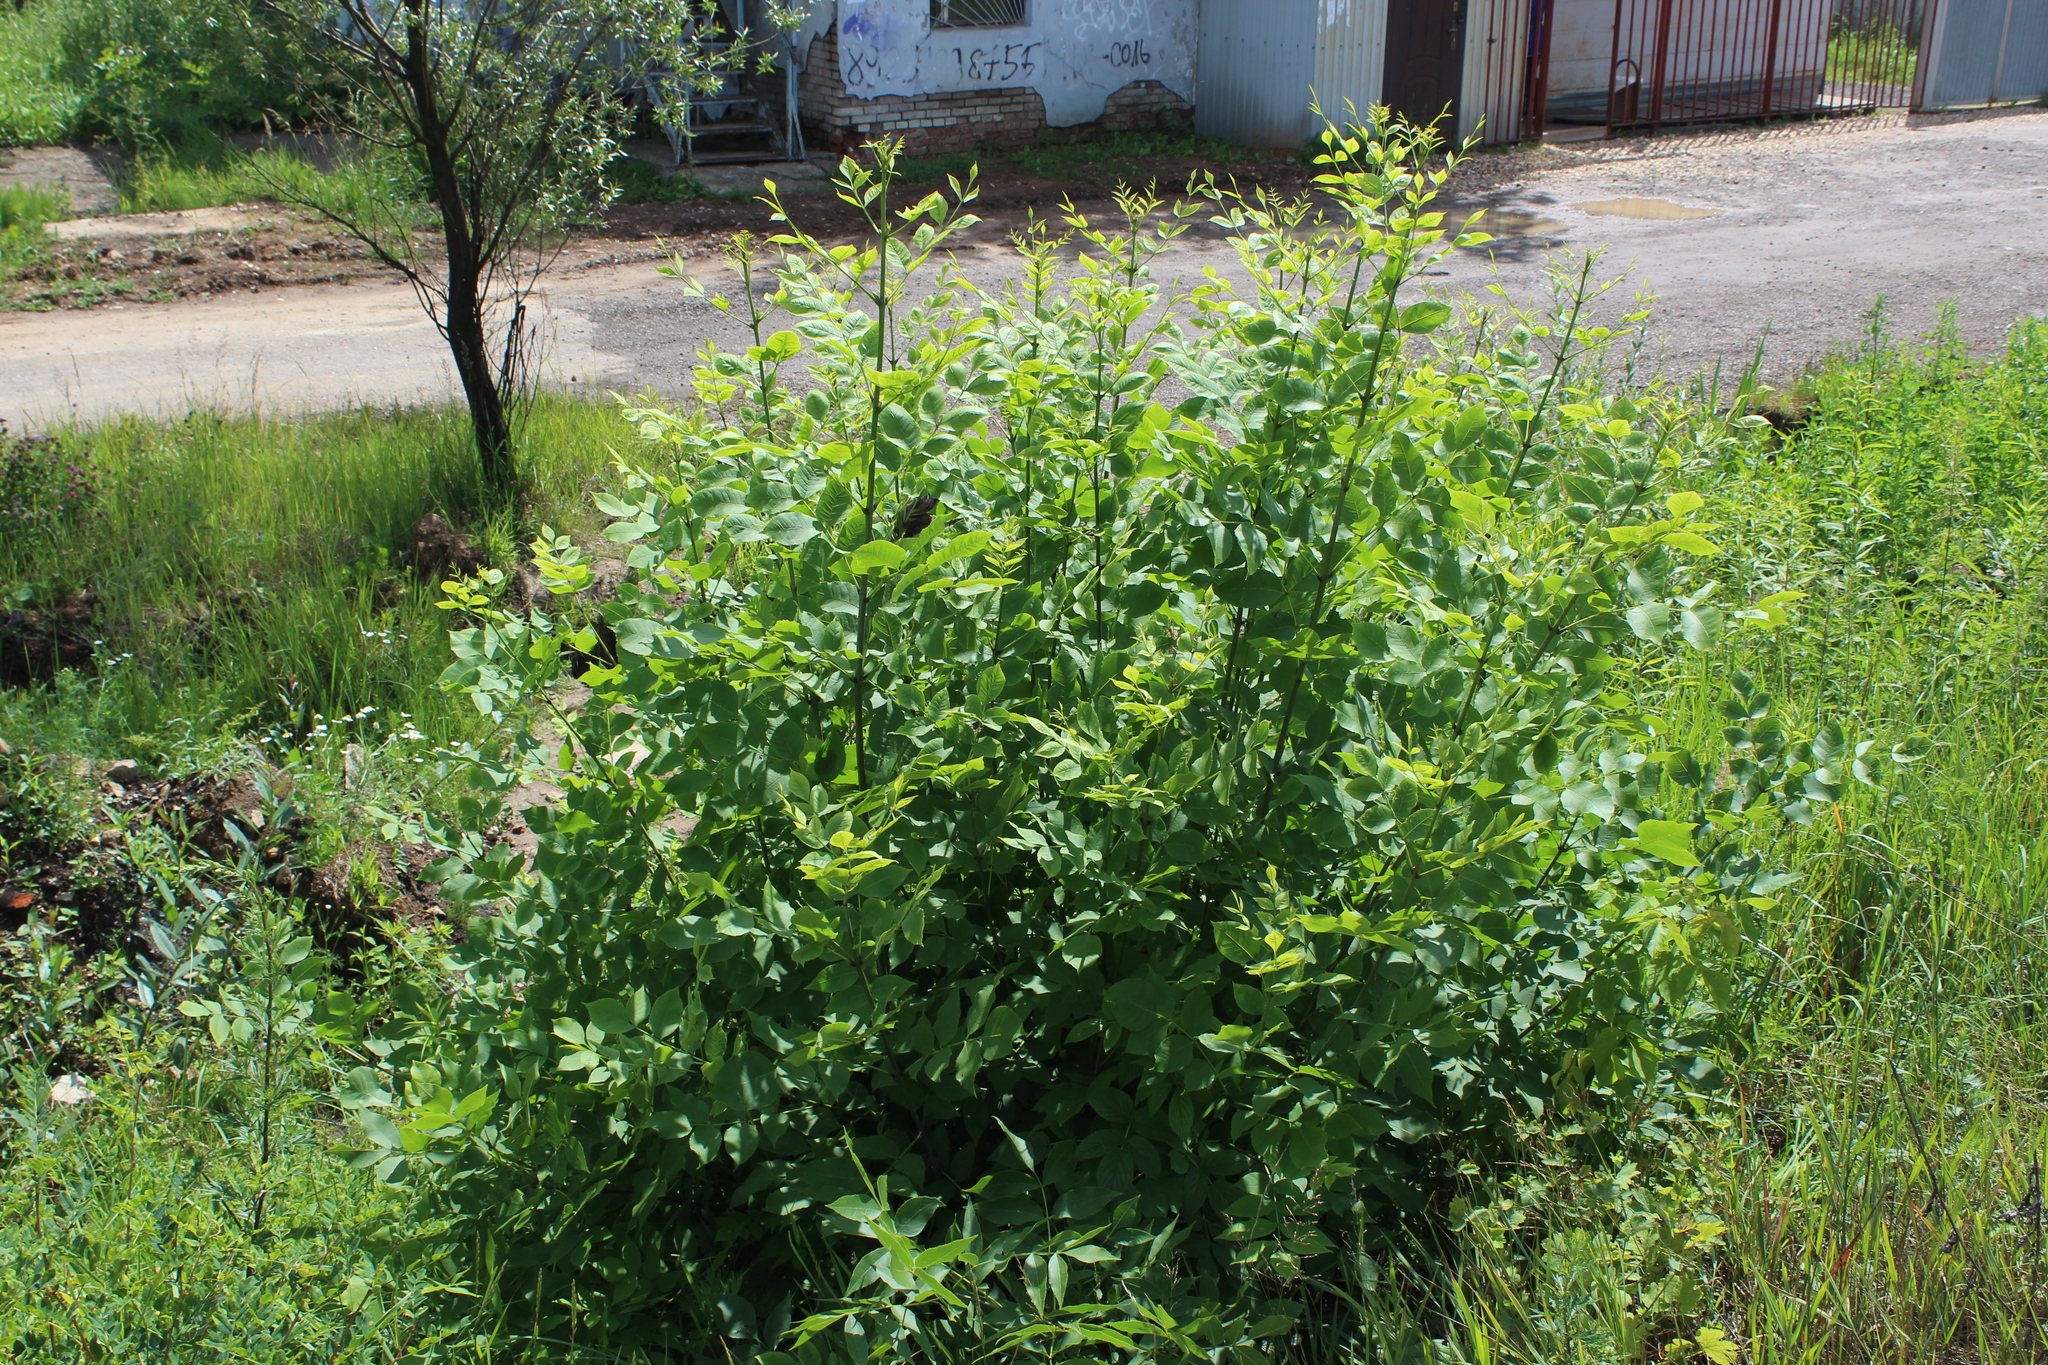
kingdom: Plantae
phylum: Tracheophyta
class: Magnoliopsida
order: Lamiales
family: Oleaceae
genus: Fraxinus
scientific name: Fraxinus pennsylvanica
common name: Green ash
